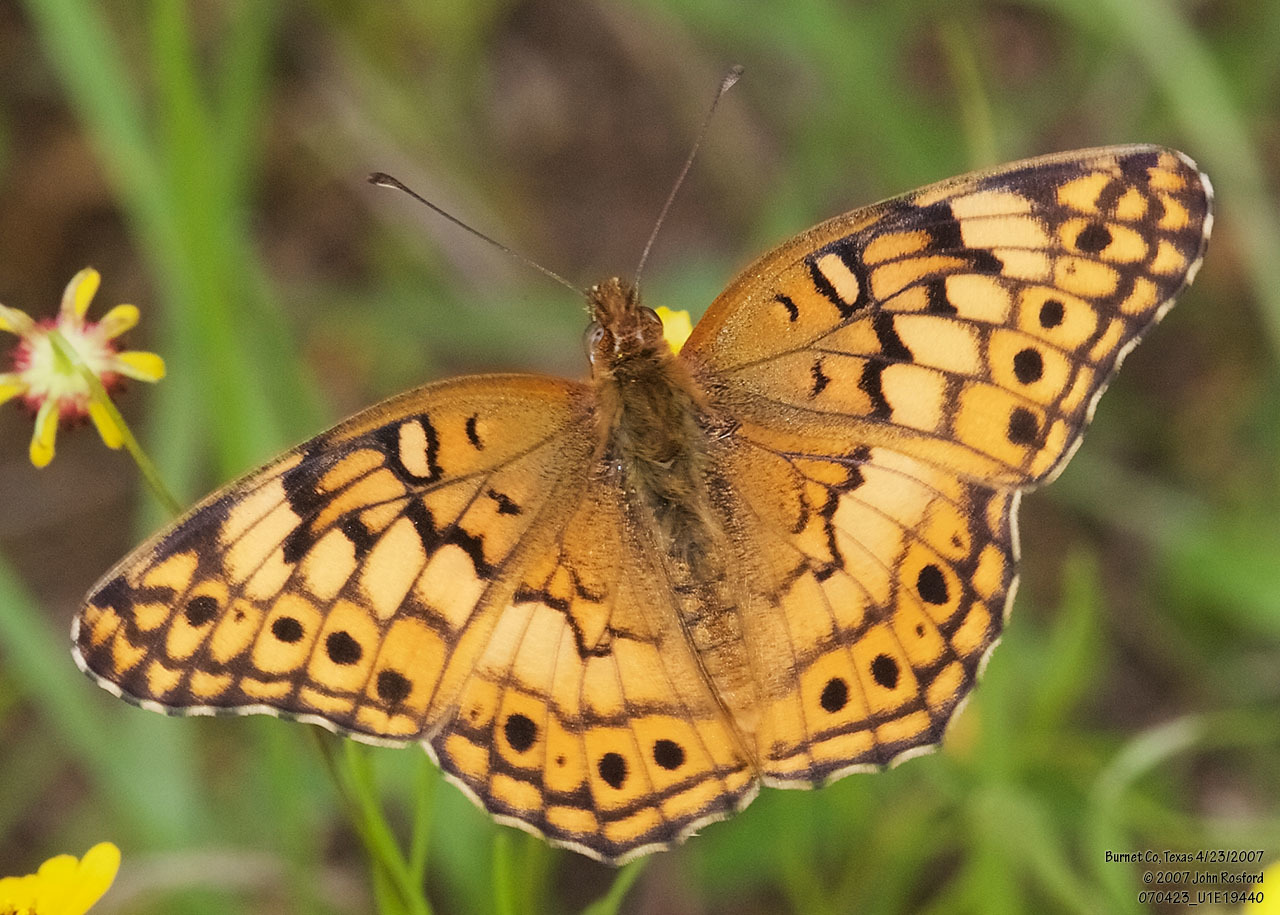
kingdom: Animalia
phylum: Arthropoda
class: Insecta
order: Lepidoptera
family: Nymphalidae
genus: Euptoieta
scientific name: Euptoieta claudia
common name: Variegated fritillary
